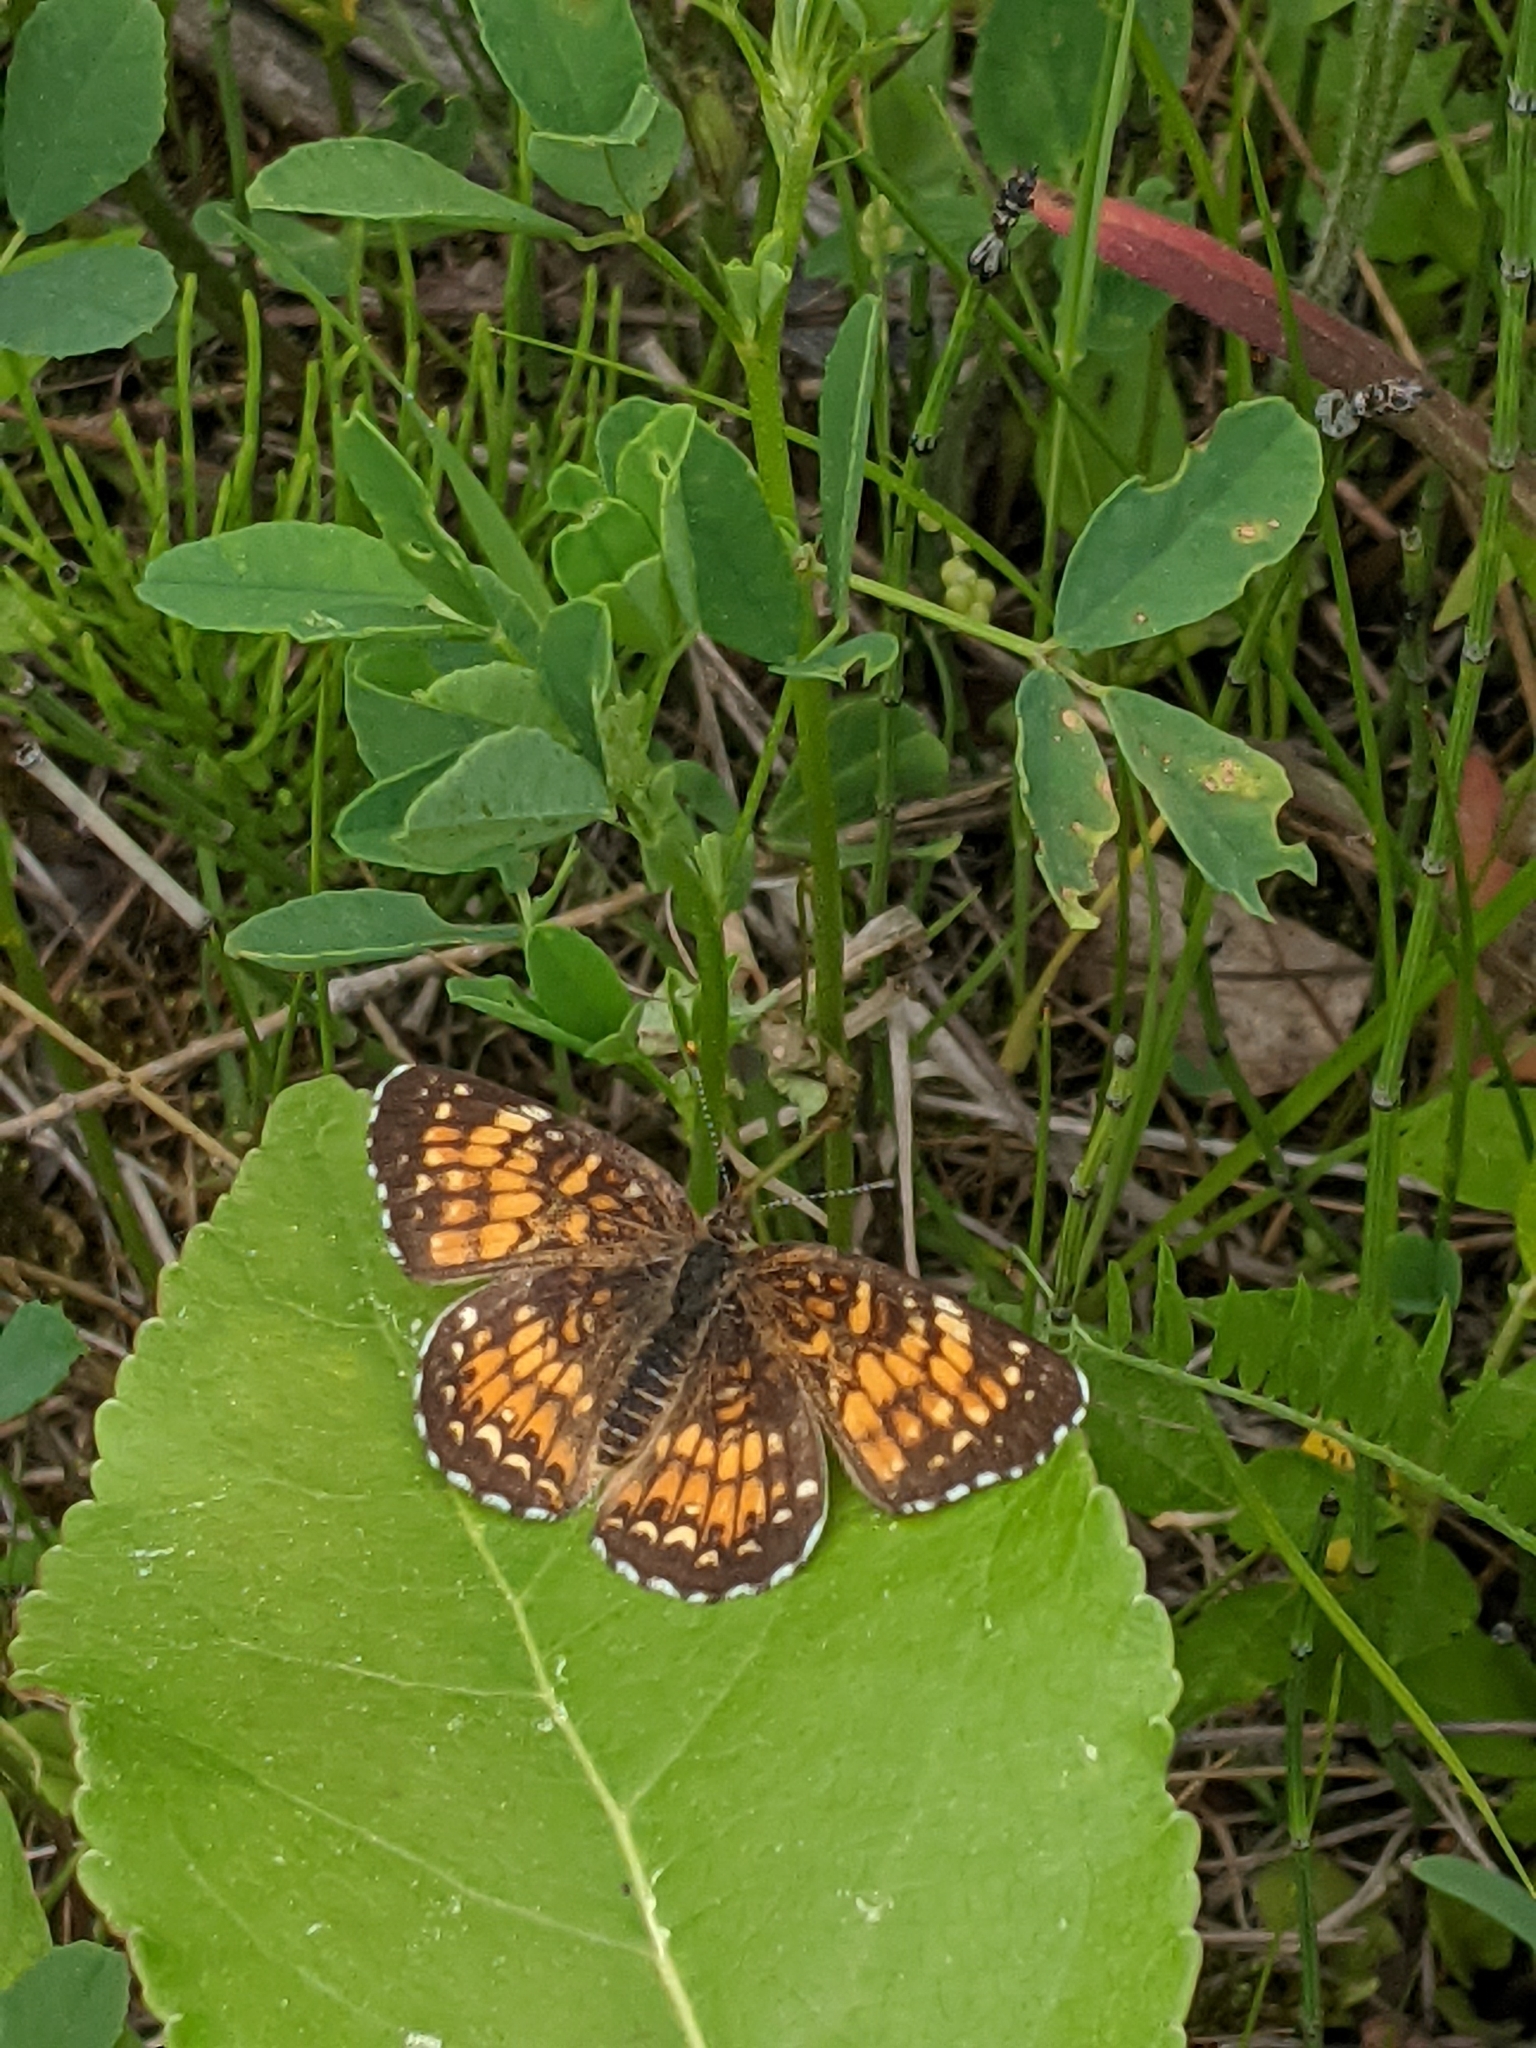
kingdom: Animalia
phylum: Arthropoda
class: Insecta
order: Lepidoptera
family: Nymphalidae
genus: Chlosyne
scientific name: Chlosyne harrisii
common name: Harris's checkerspot
